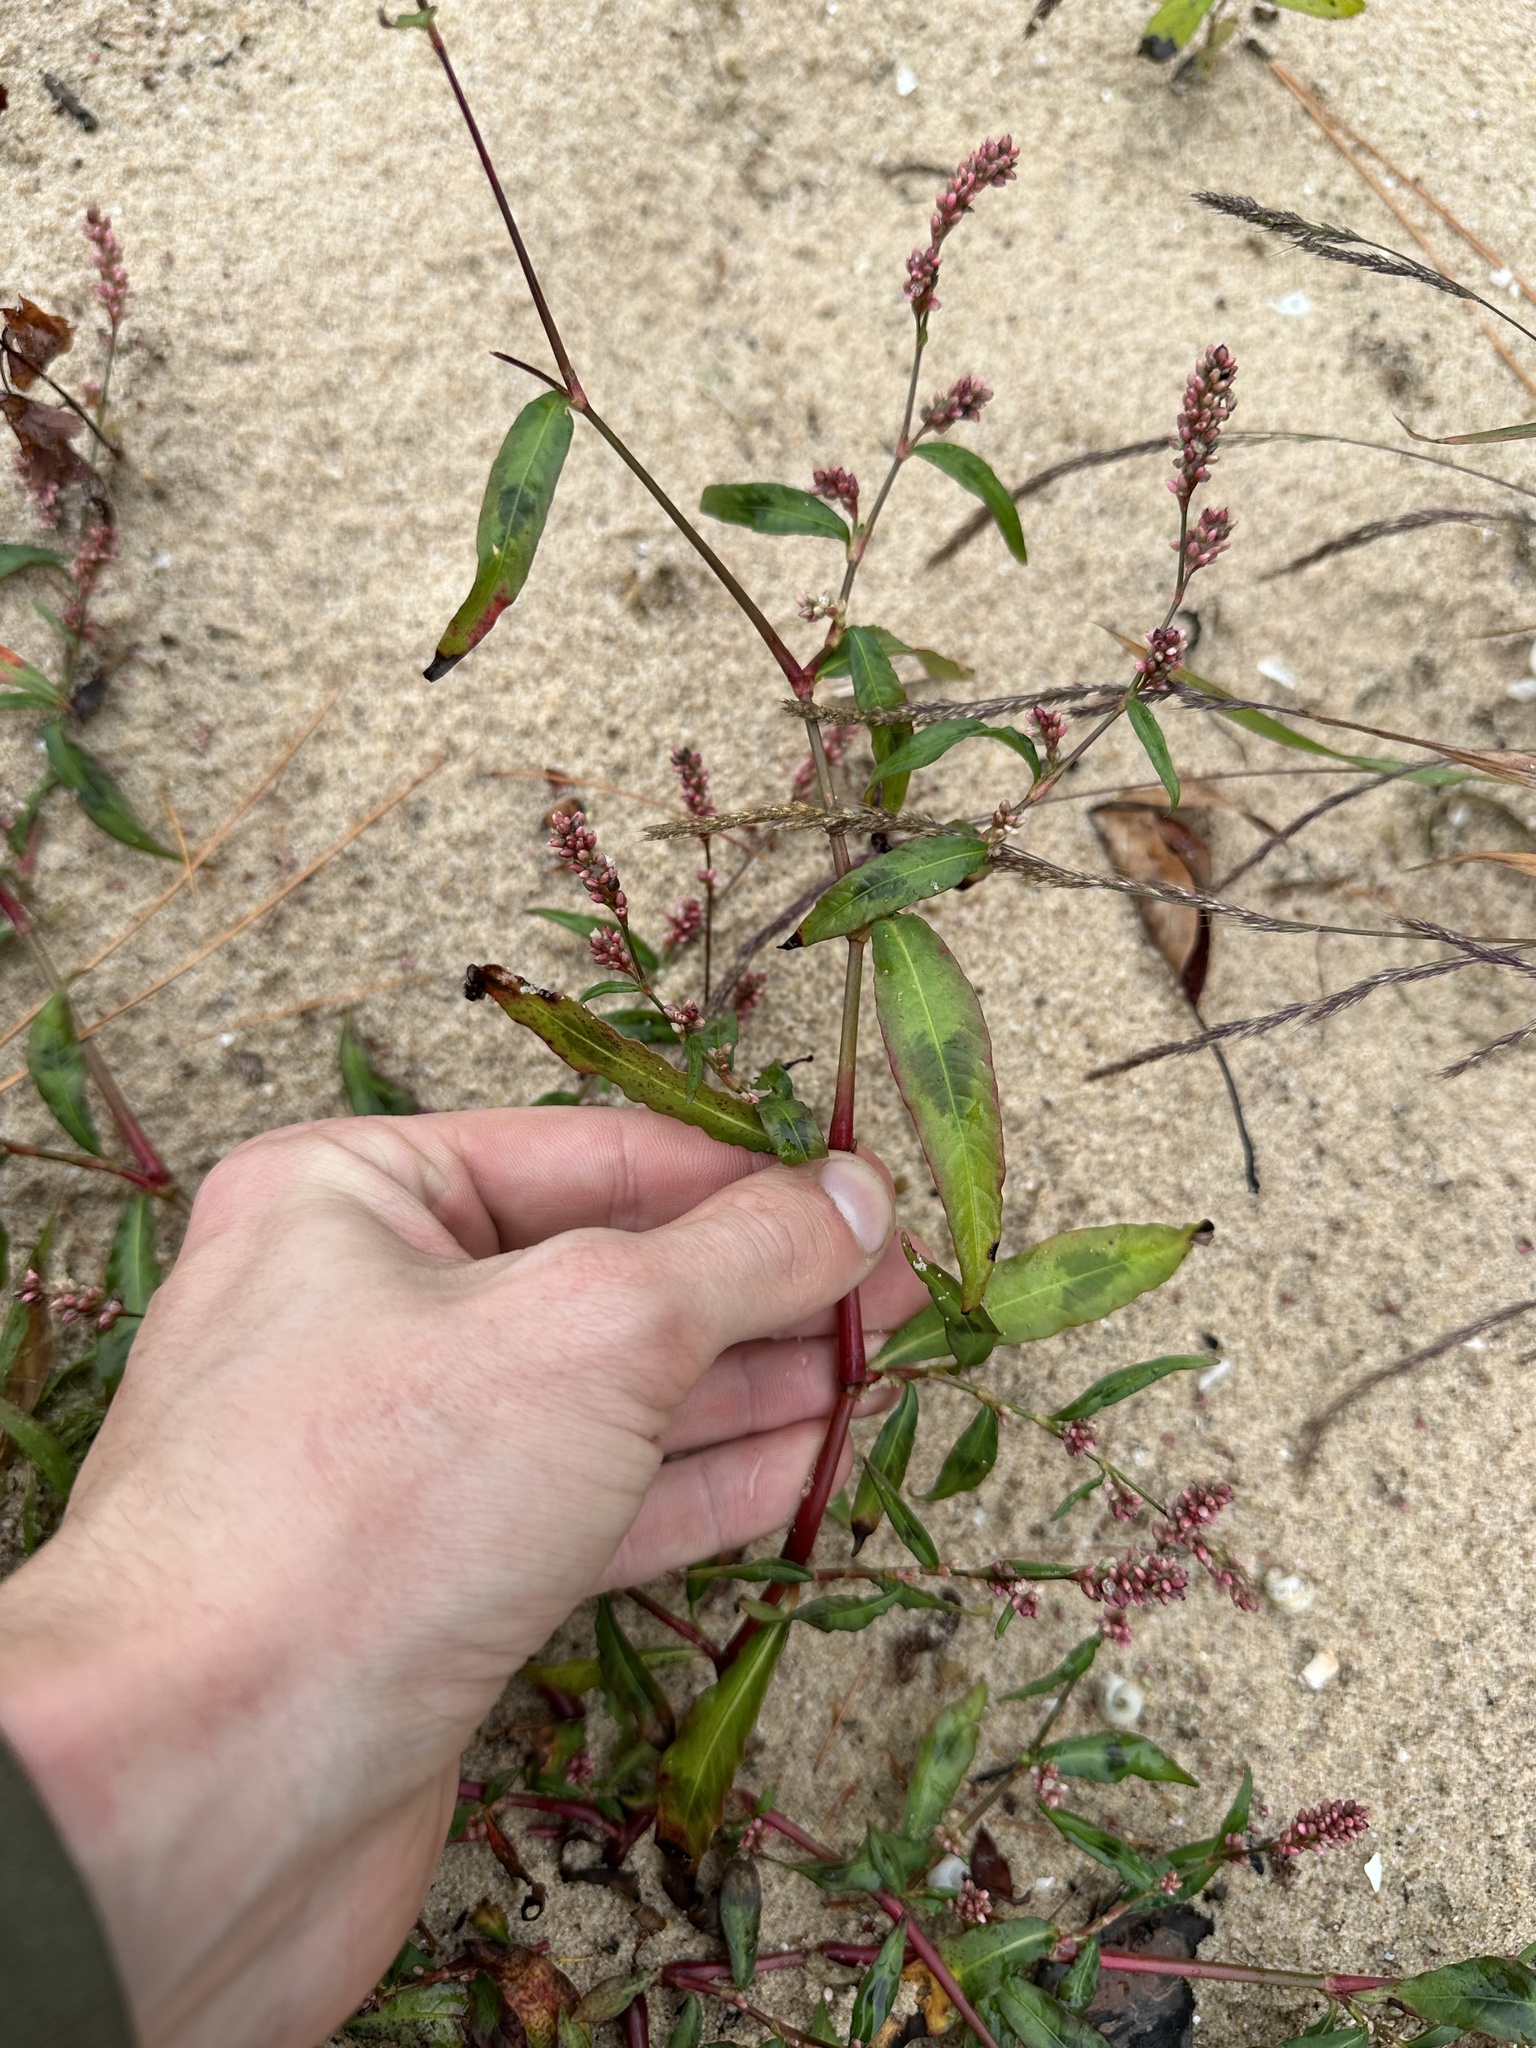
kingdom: Plantae
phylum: Tracheophyta
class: Magnoliopsida
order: Caryophyllales
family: Polygonaceae
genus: Persicaria
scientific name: Persicaria maculosa
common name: Redshank
